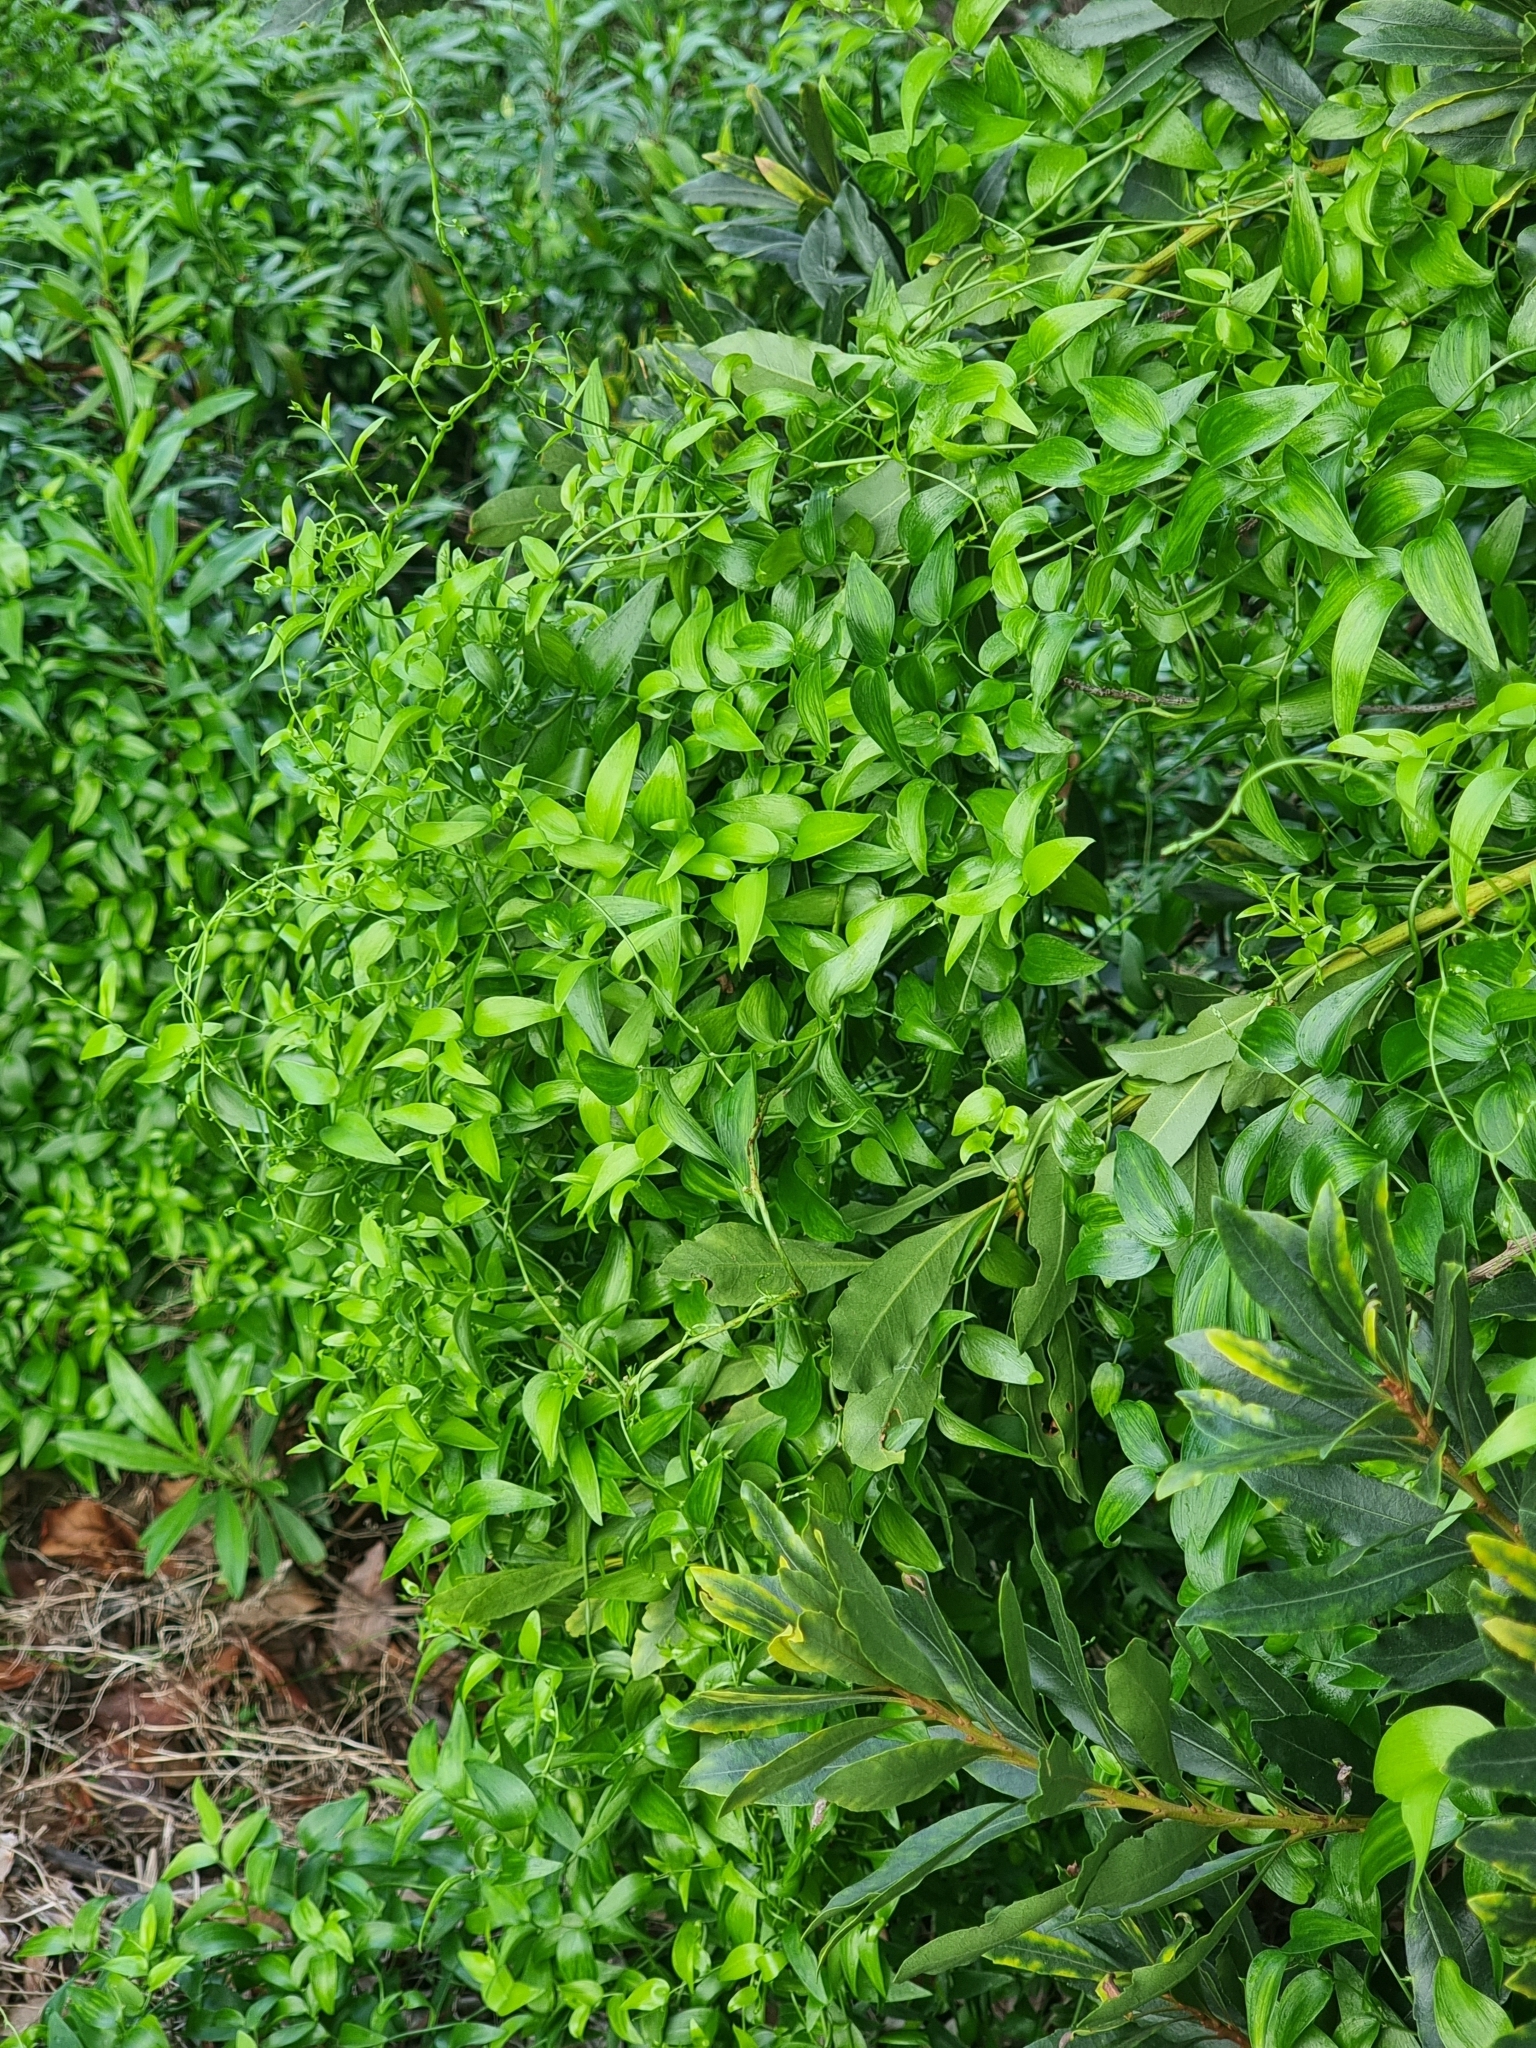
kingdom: Plantae
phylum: Tracheophyta
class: Liliopsida
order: Asparagales
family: Asparagaceae
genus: Asparagus
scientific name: Asparagus asparagoides
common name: African asparagus fern
